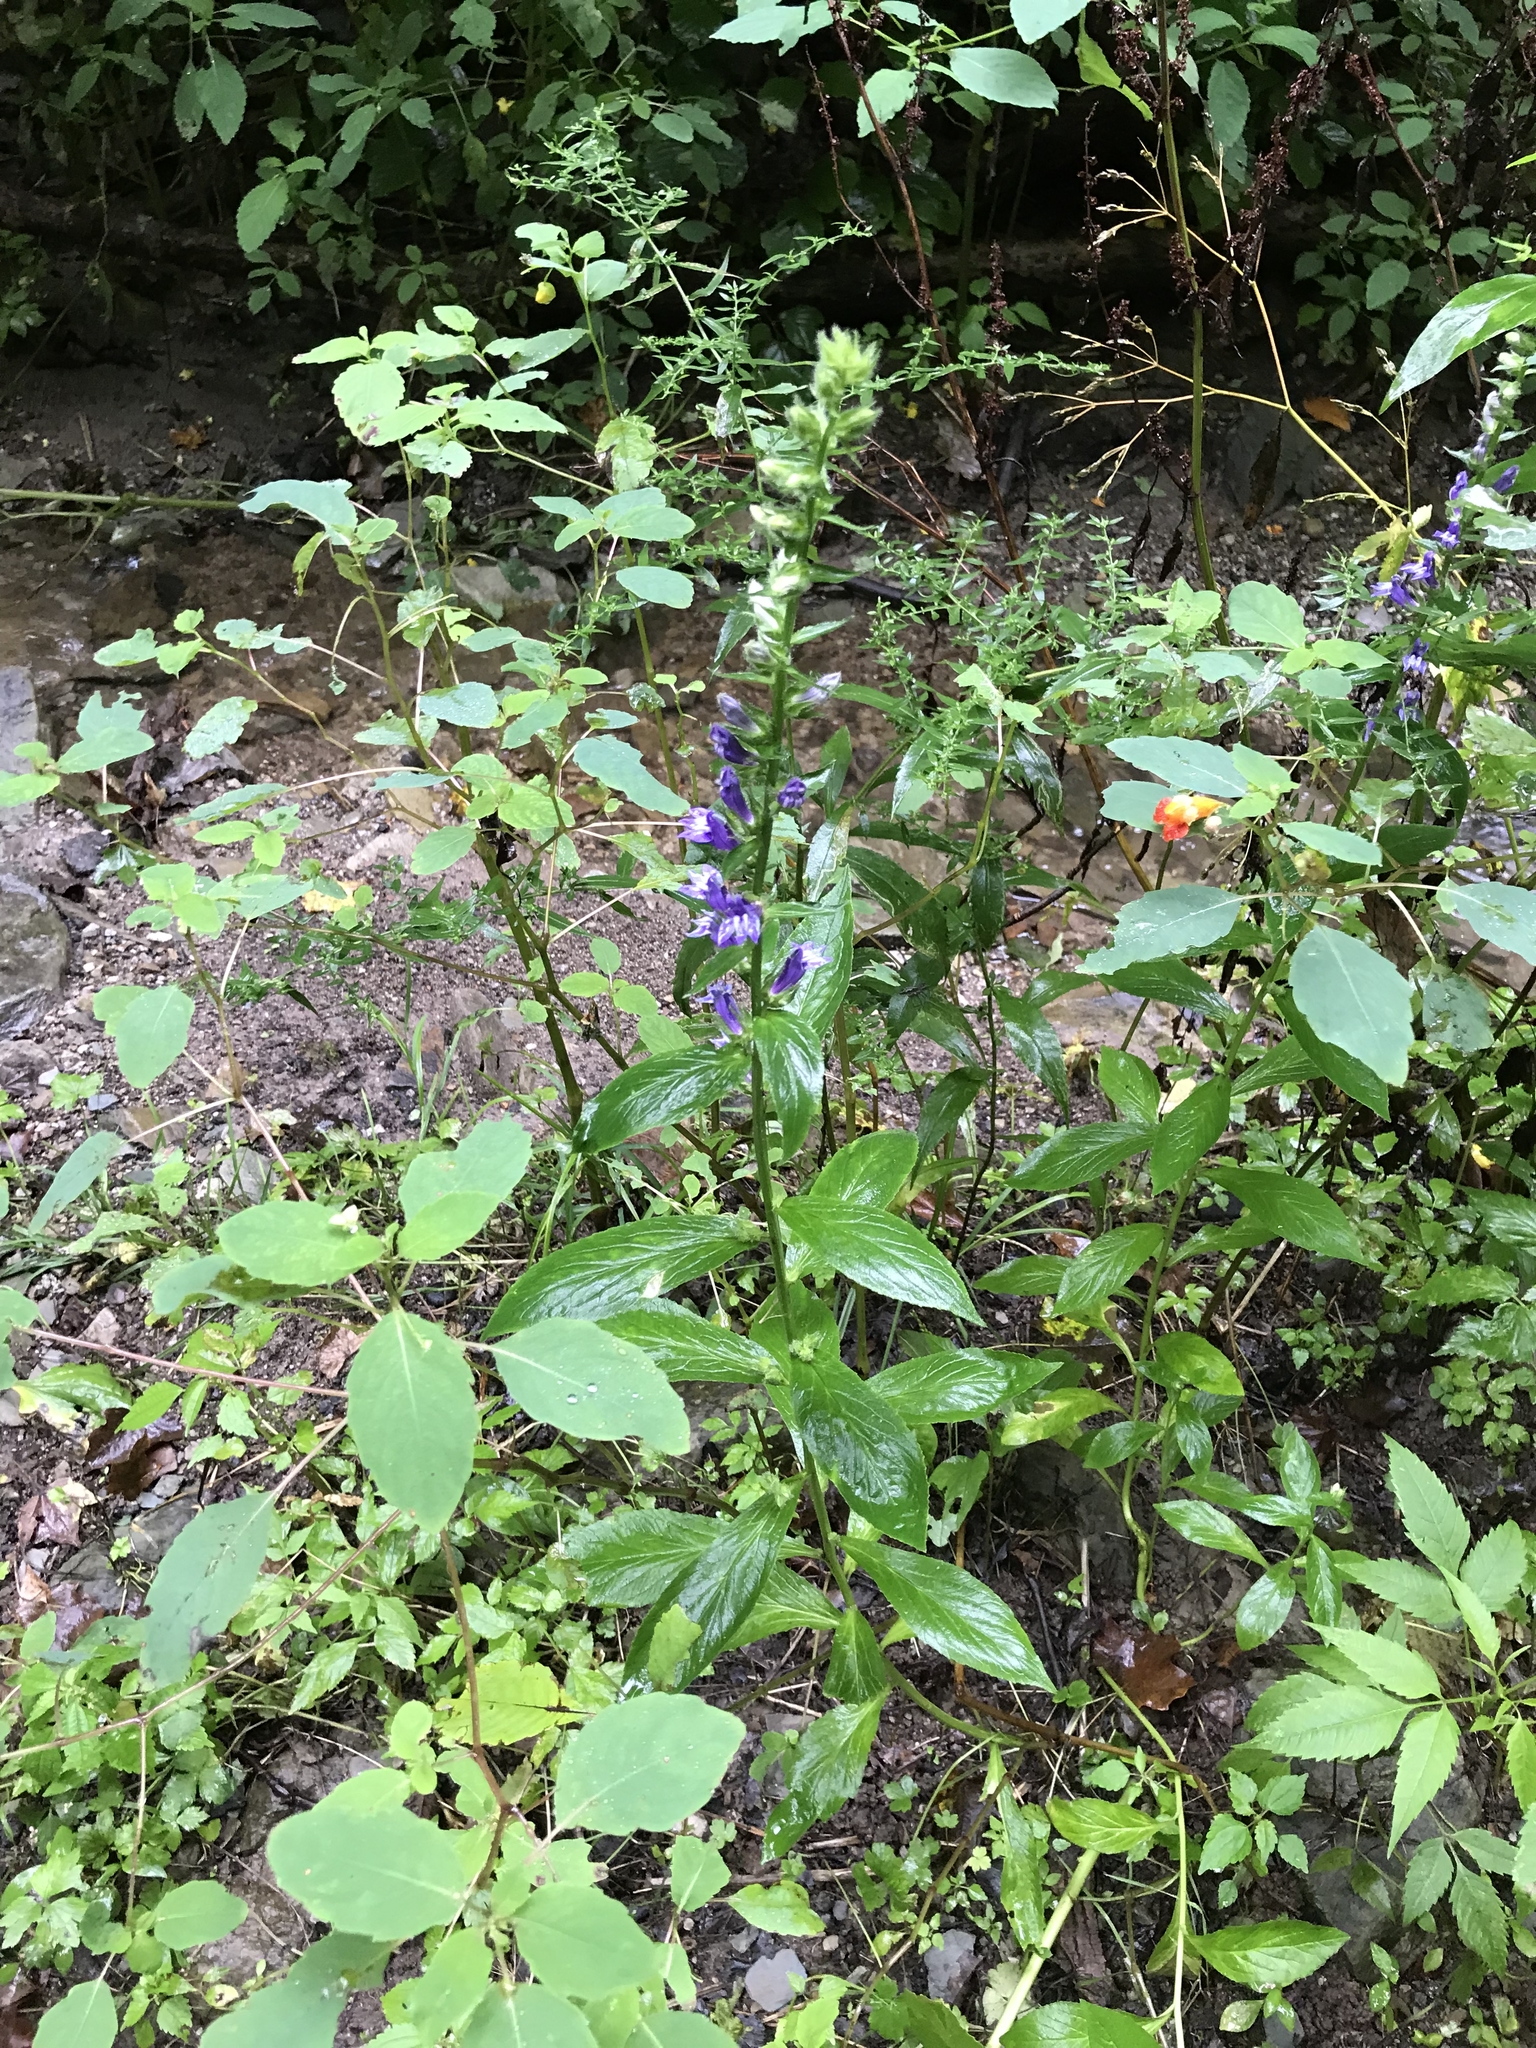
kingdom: Plantae
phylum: Tracheophyta
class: Magnoliopsida
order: Asterales
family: Campanulaceae
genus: Lobelia
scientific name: Lobelia siphilitica
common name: Great lobelia
